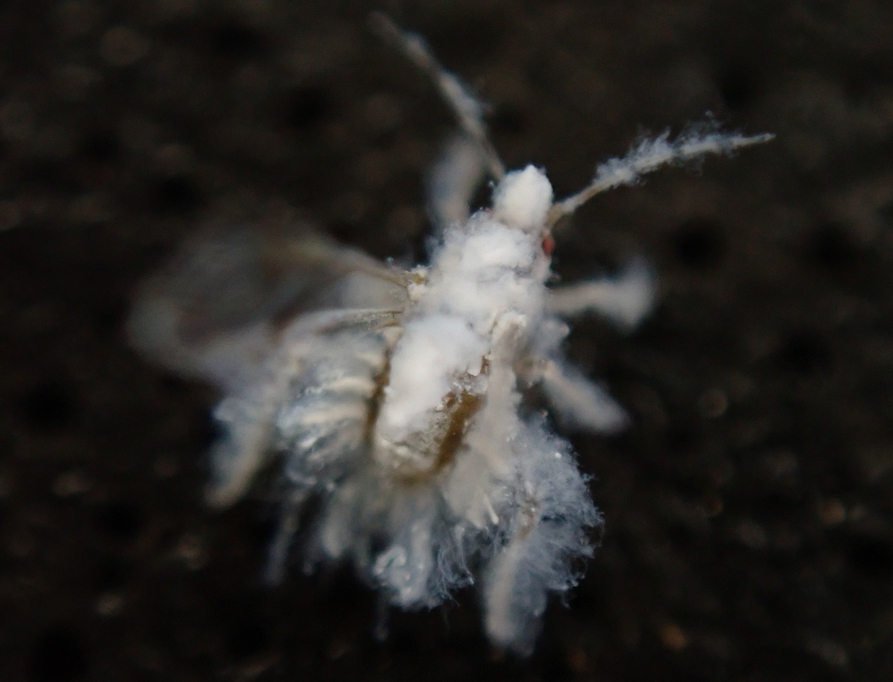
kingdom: Animalia
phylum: Arthropoda
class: Insecta
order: Hemiptera
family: Aphididae
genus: Shivaphis
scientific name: Shivaphis celti
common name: Asian wooly hackberry aphid
